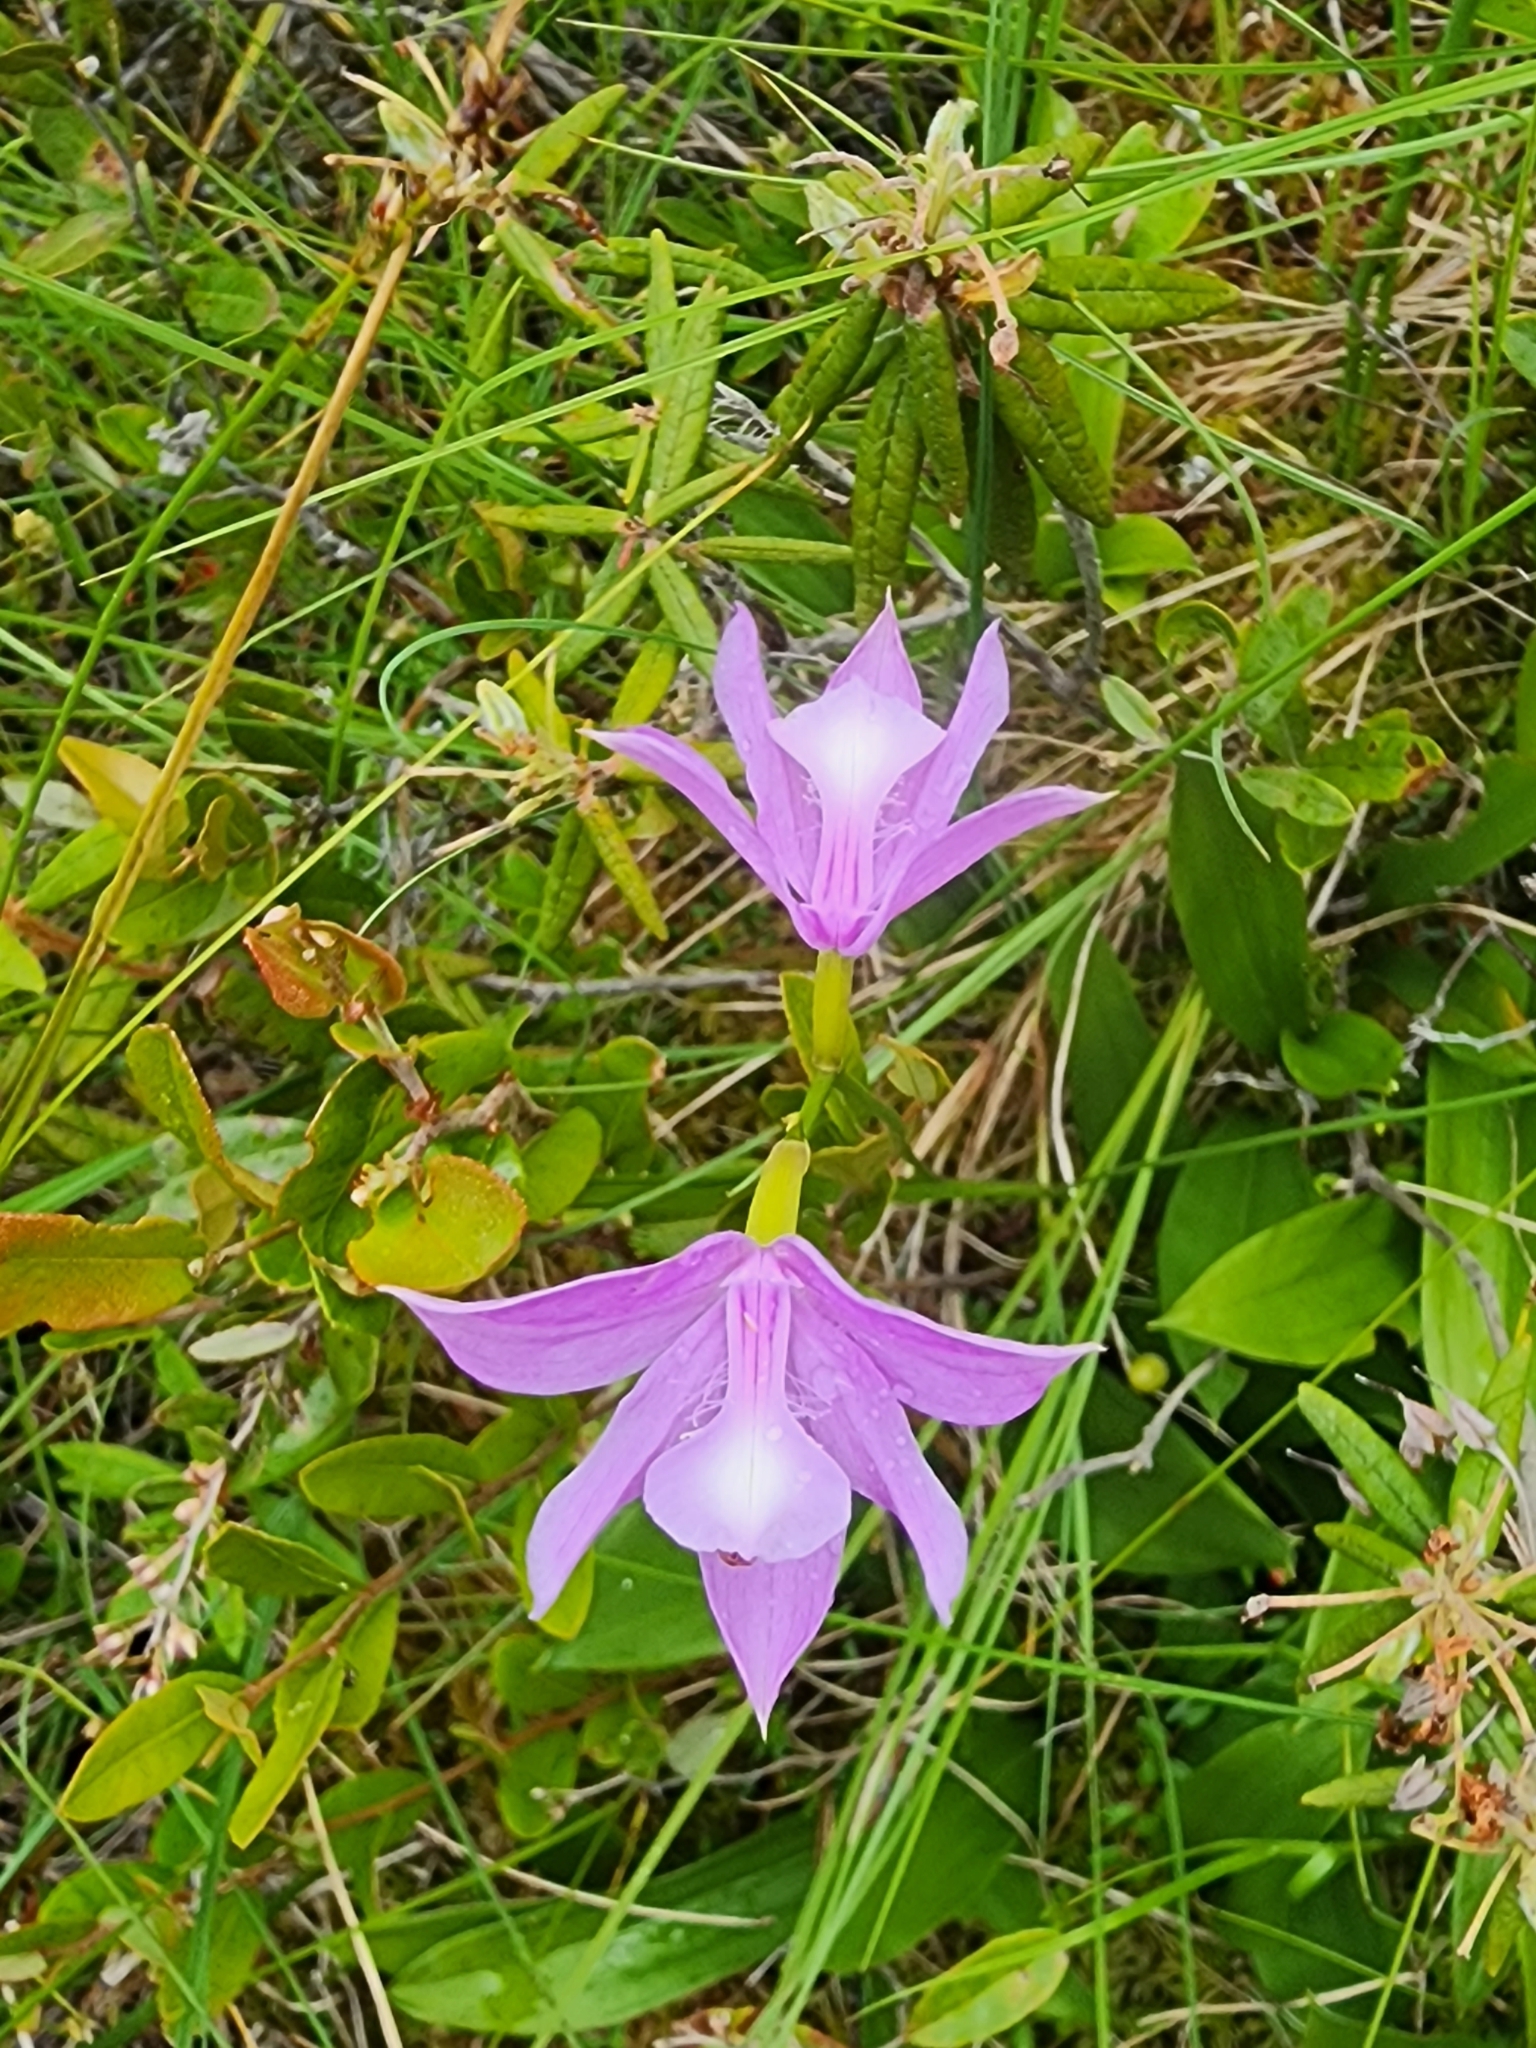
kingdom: Plantae
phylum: Tracheophyta
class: Liliopsida
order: Asparagales
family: Orchidaceae
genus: Calopogon
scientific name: Calopogon tuberosus
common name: Grass-pink
